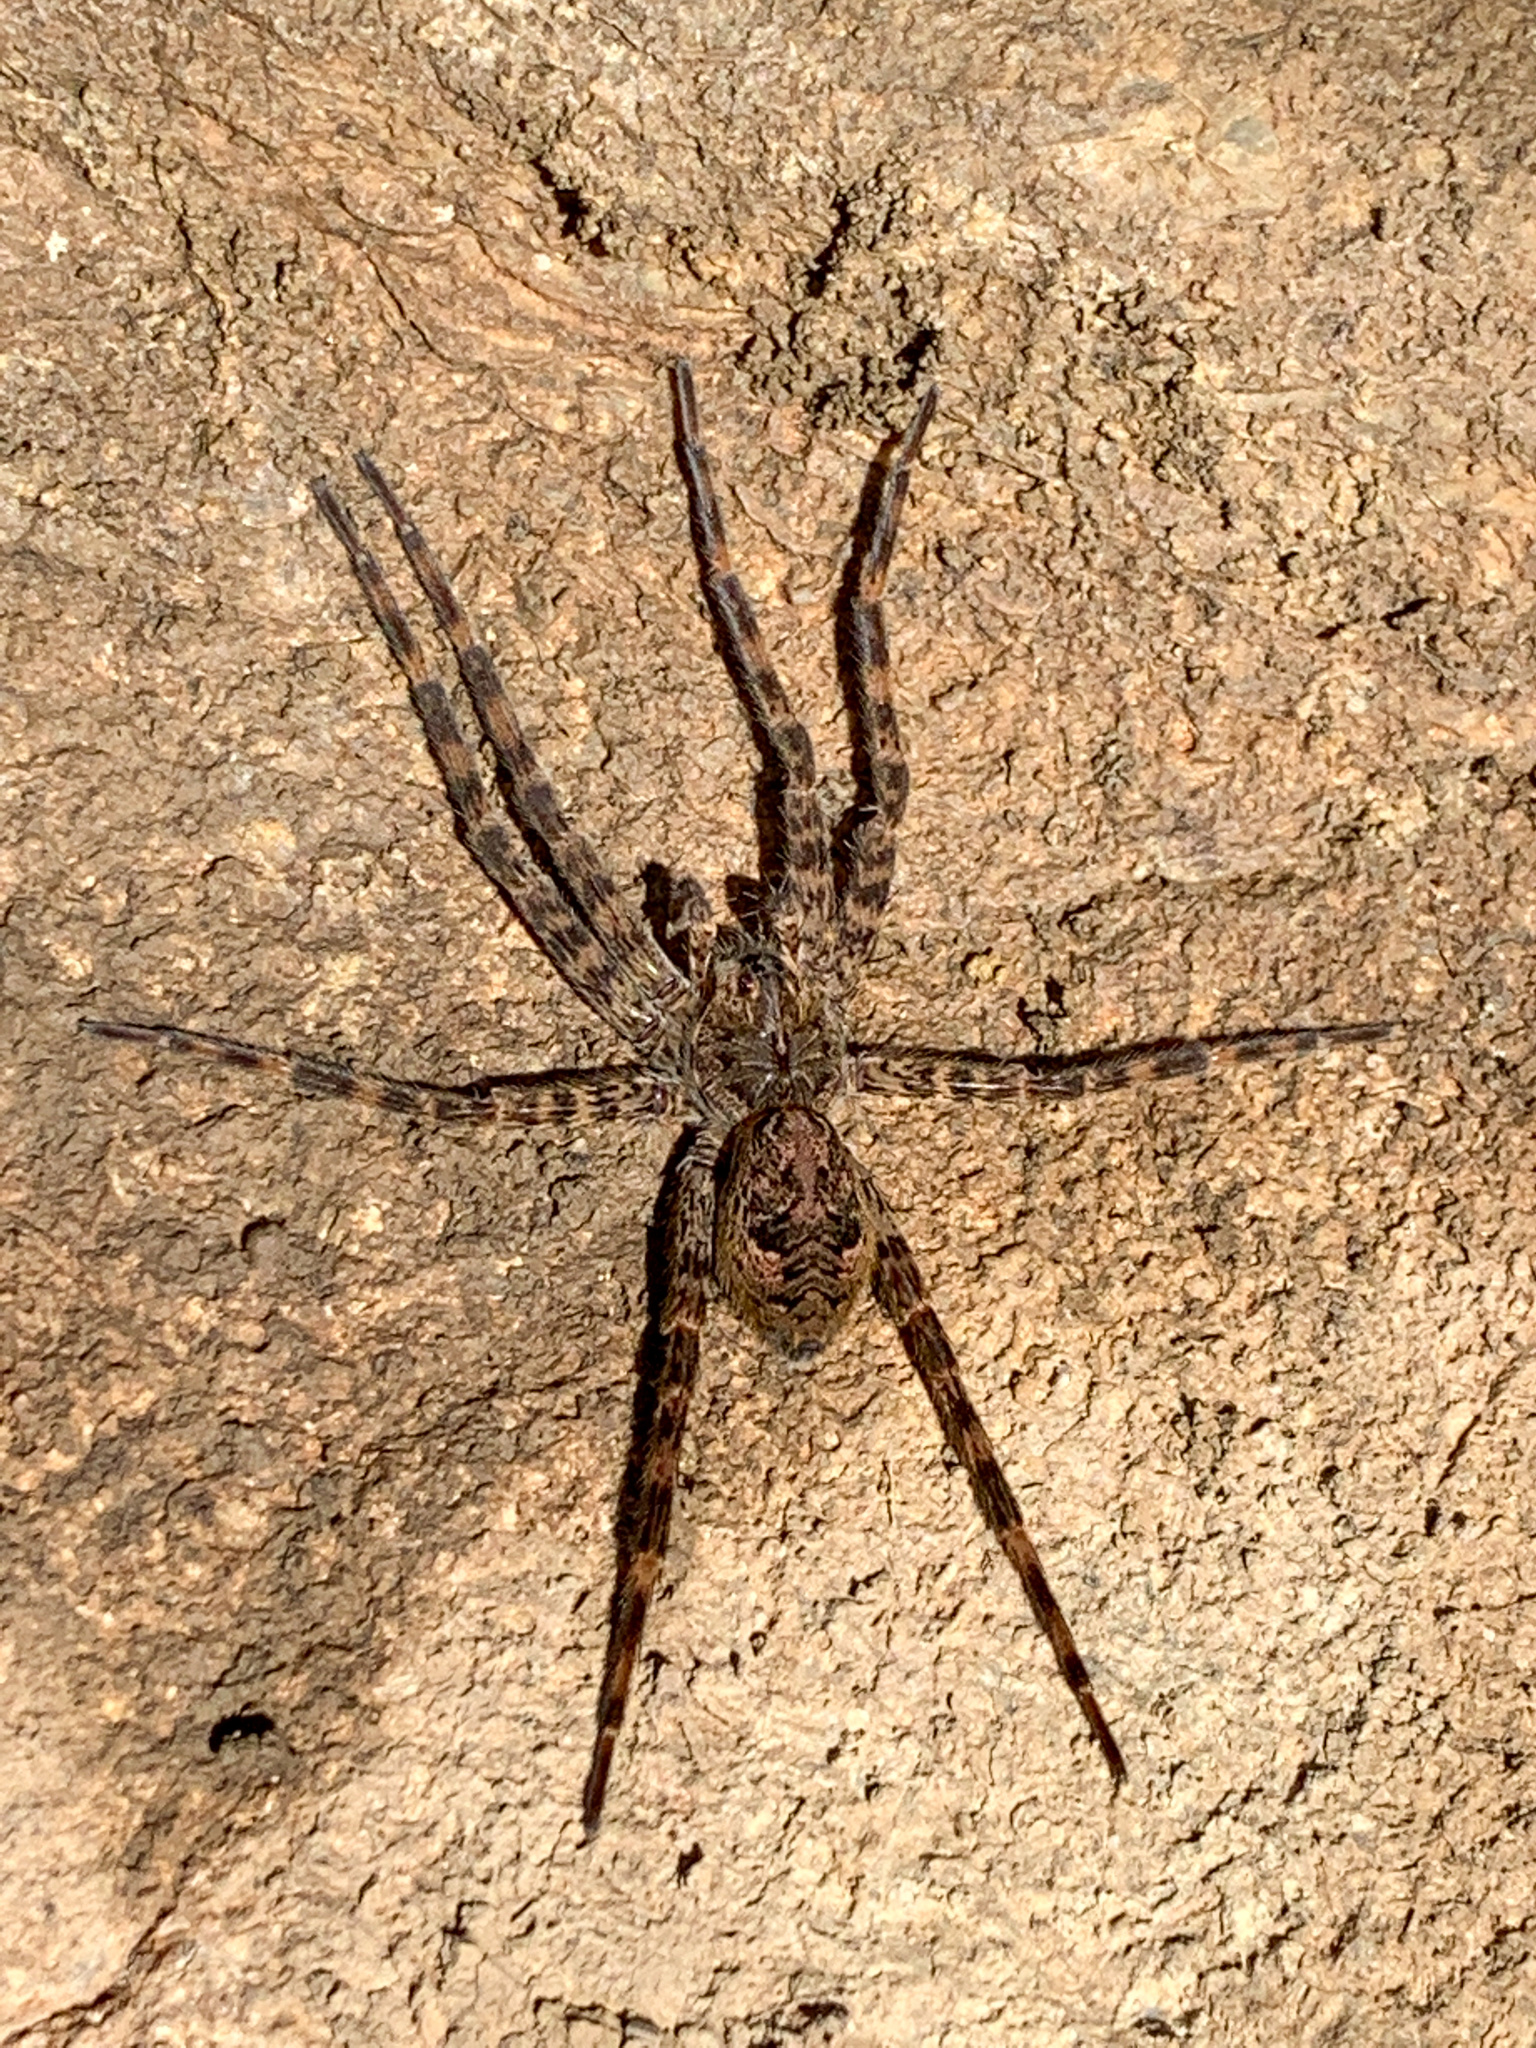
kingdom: Animalia
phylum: Arthropoda
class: Arachnida
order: Araneae
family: Pisauridae
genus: Dolomedes
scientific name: Dolomedes tenebrosus
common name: Dark fishing spider
